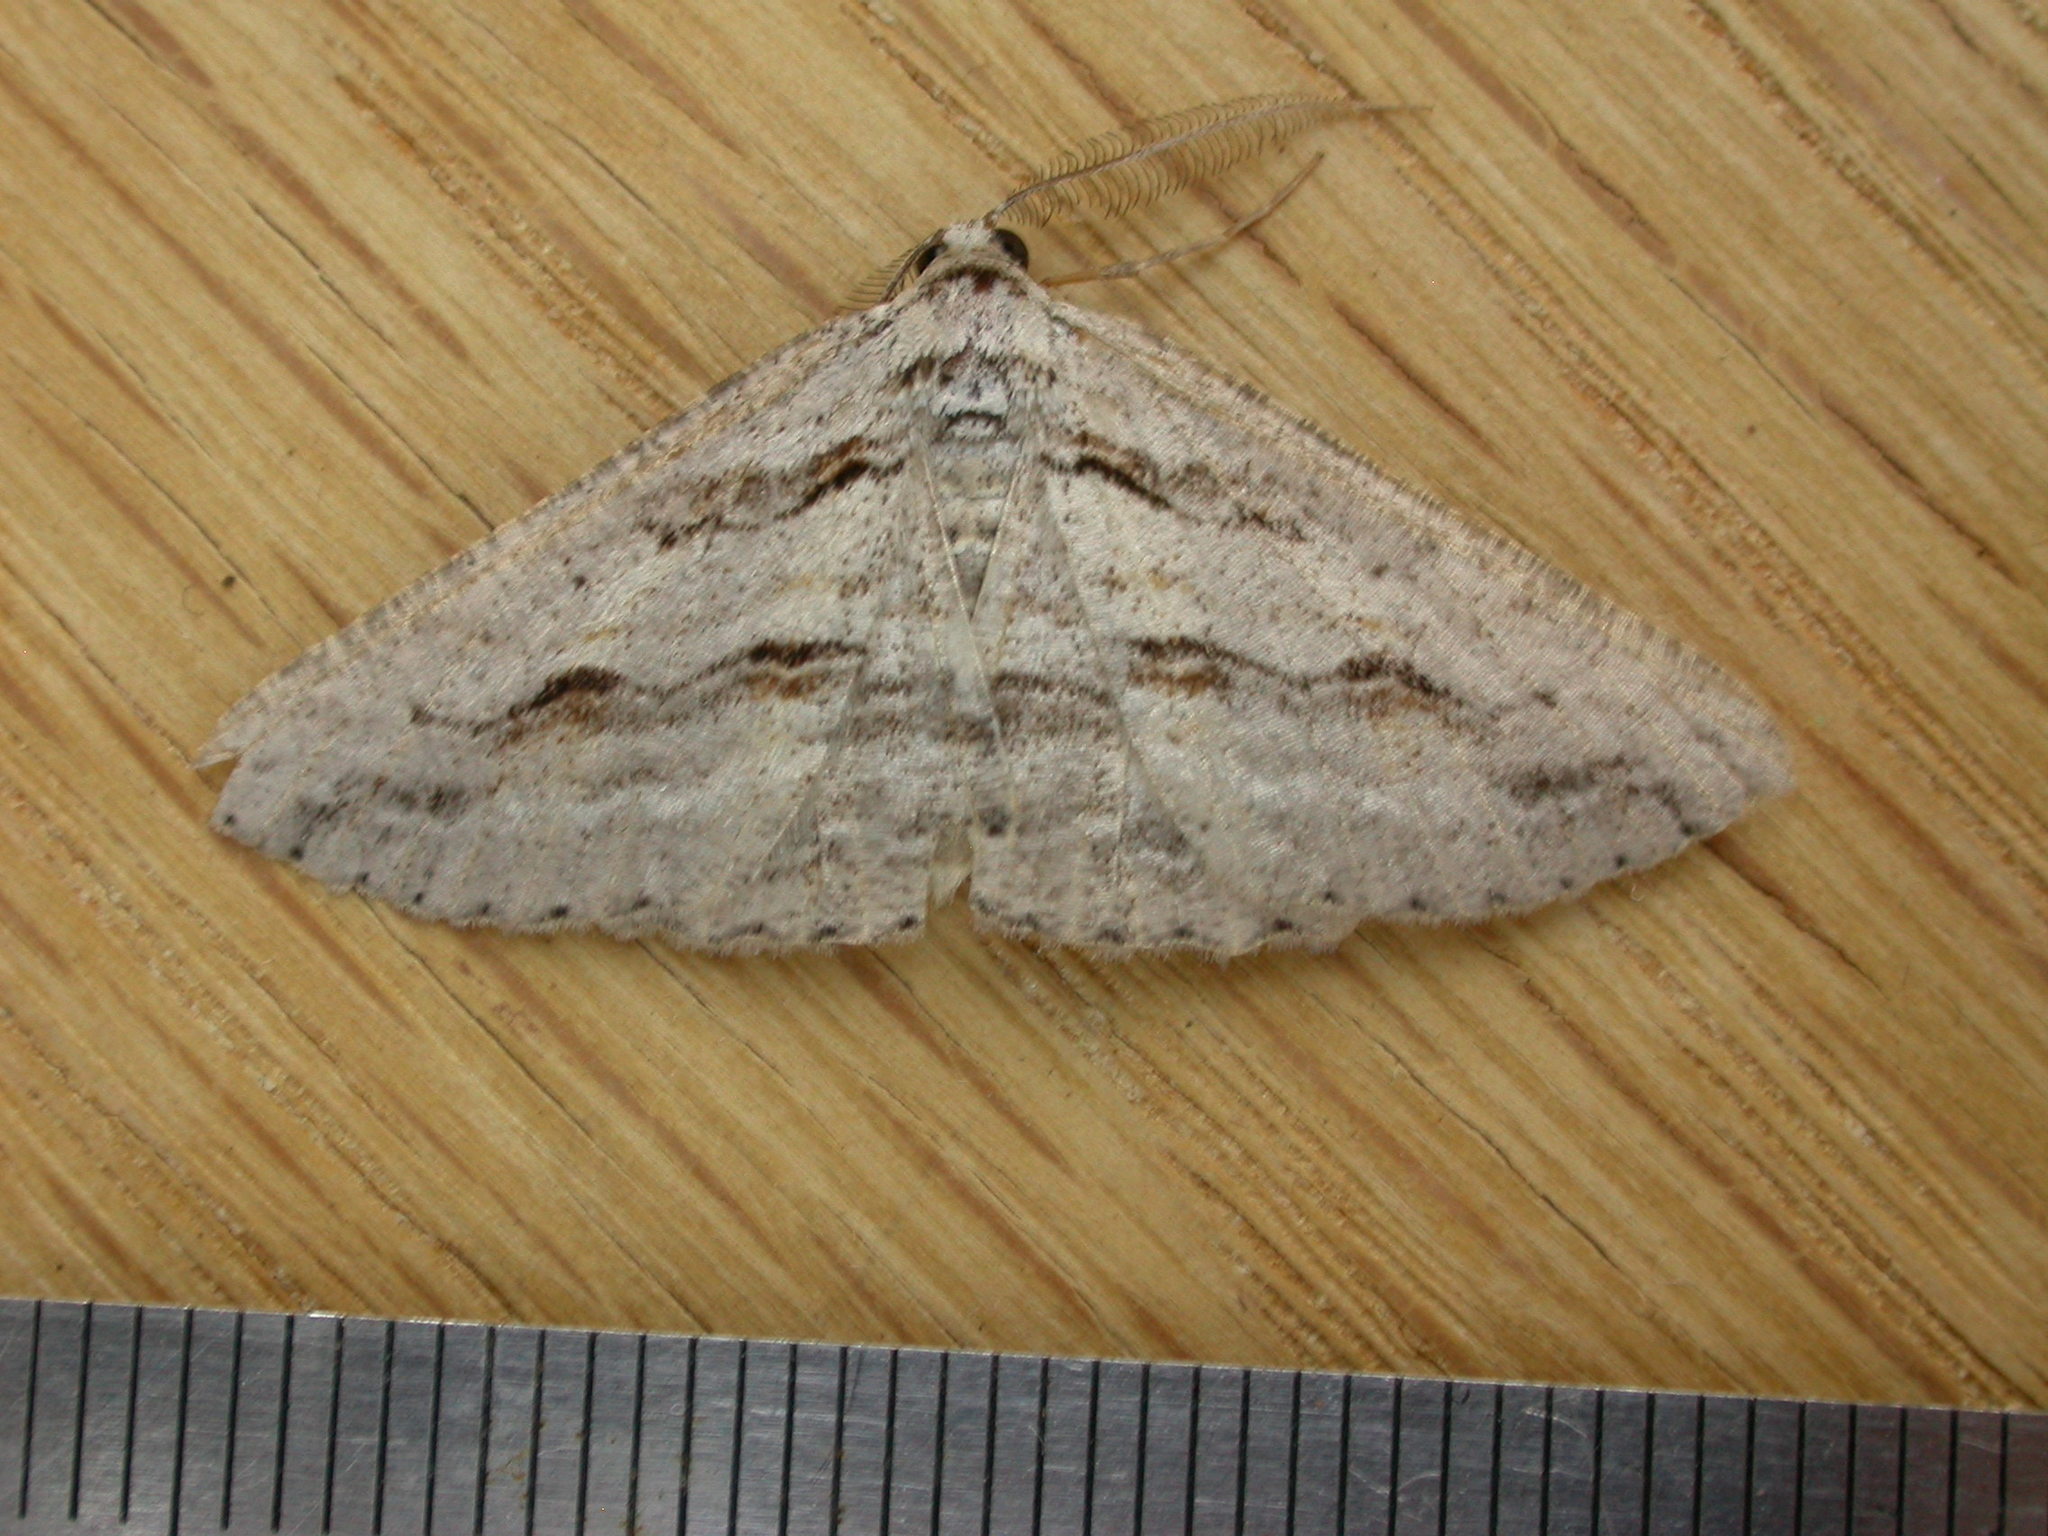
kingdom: Animalia
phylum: Arthropoda
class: Insecta
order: Lepidoptera
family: Geometridae
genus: Syneora
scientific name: Syneora mundifera
